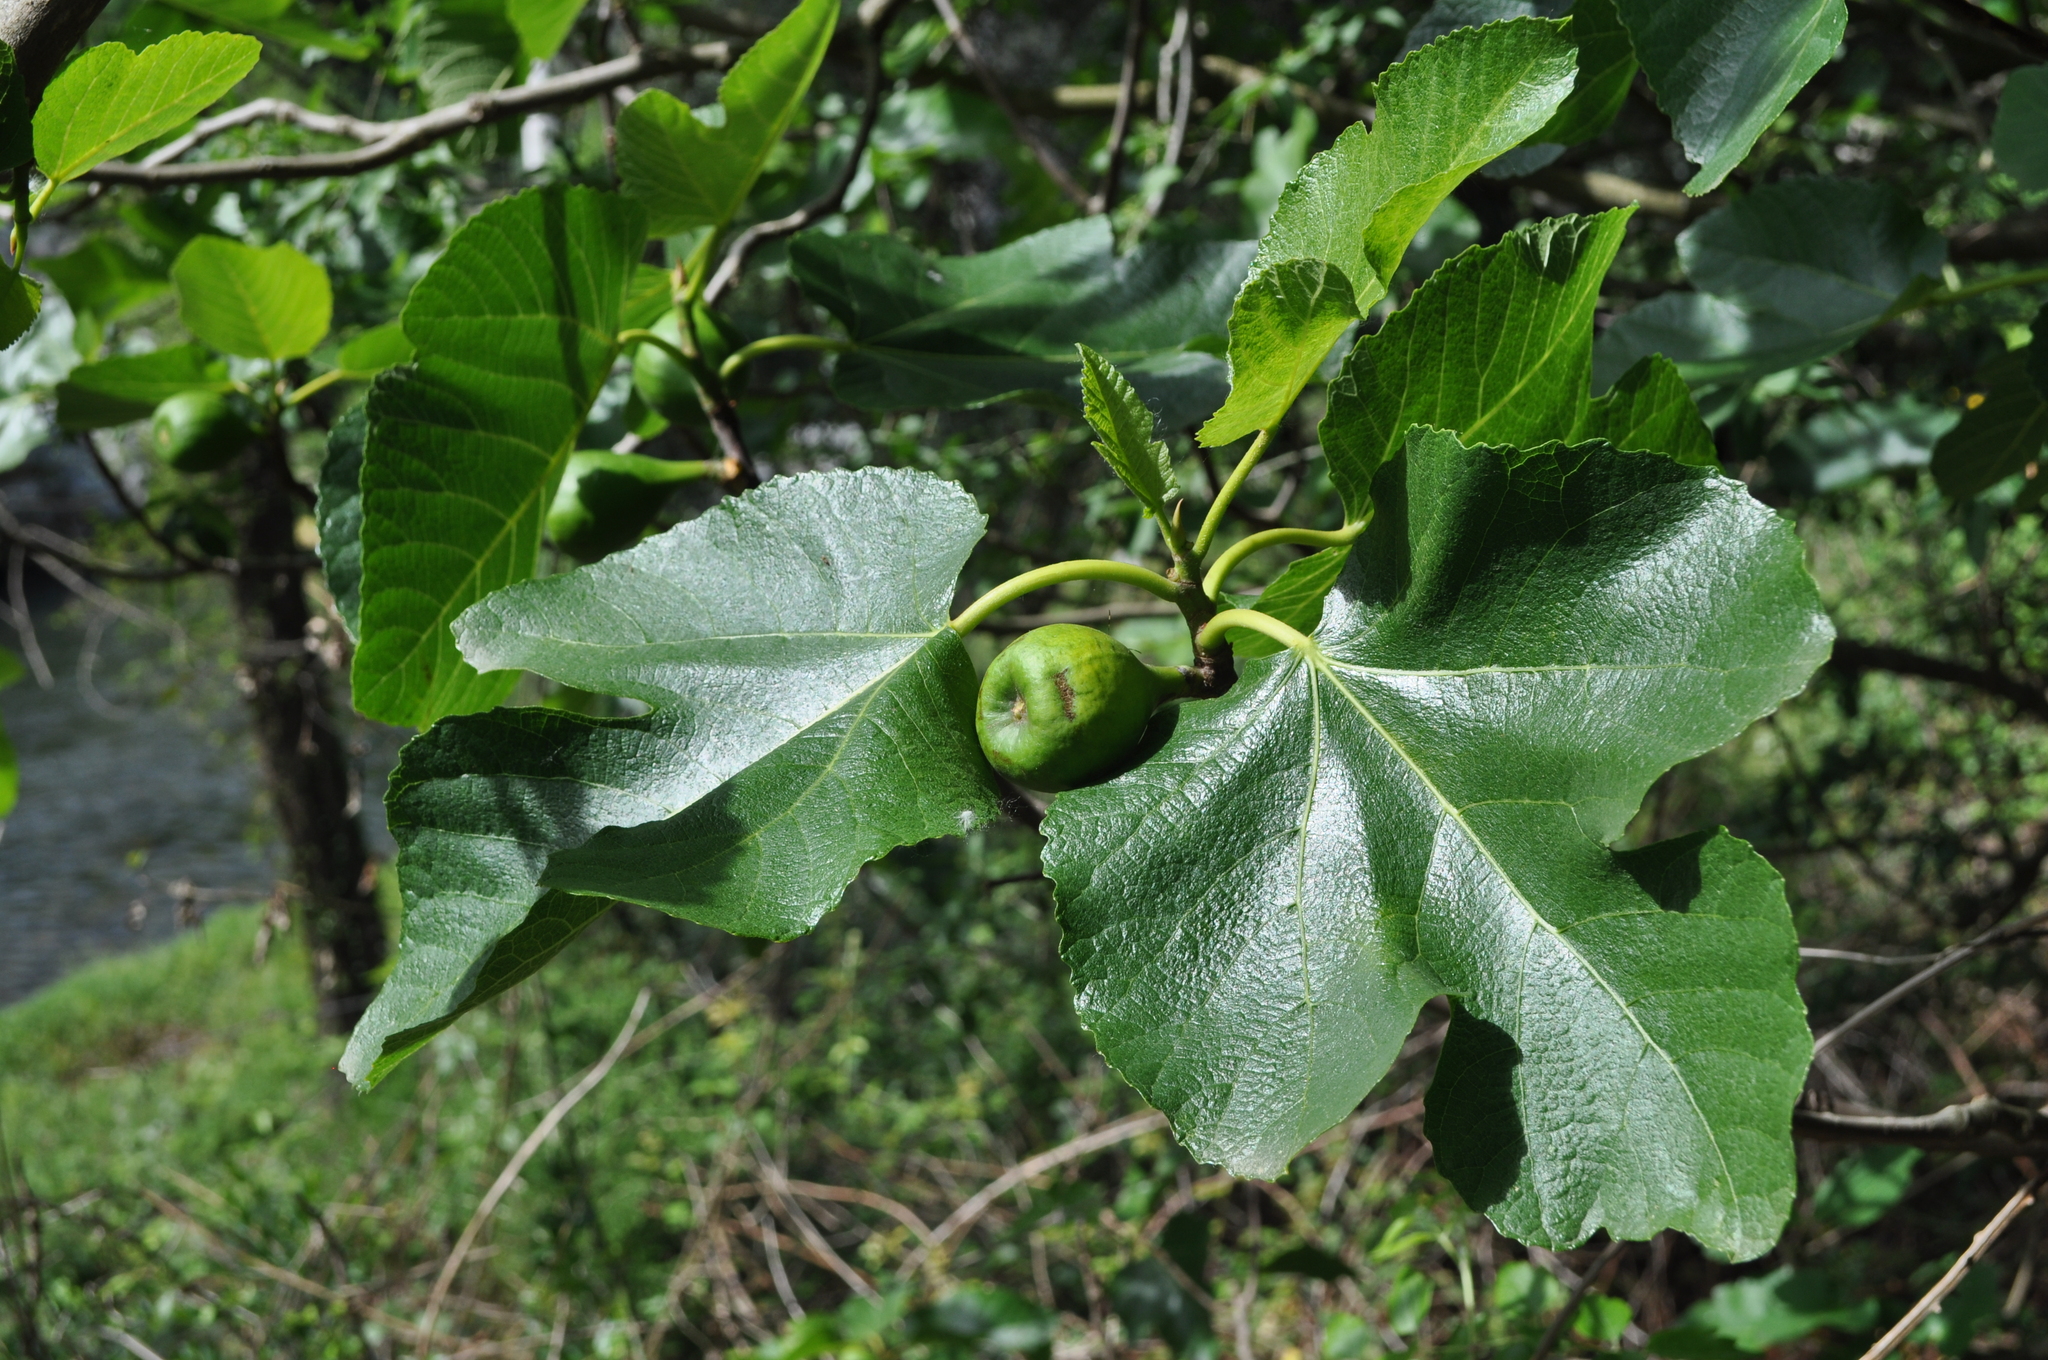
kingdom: Plantae
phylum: Tracheophyta
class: Magnoliopsida
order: Rosales
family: Moraceae
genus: Ficus
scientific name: Ficus carica
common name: Fig
